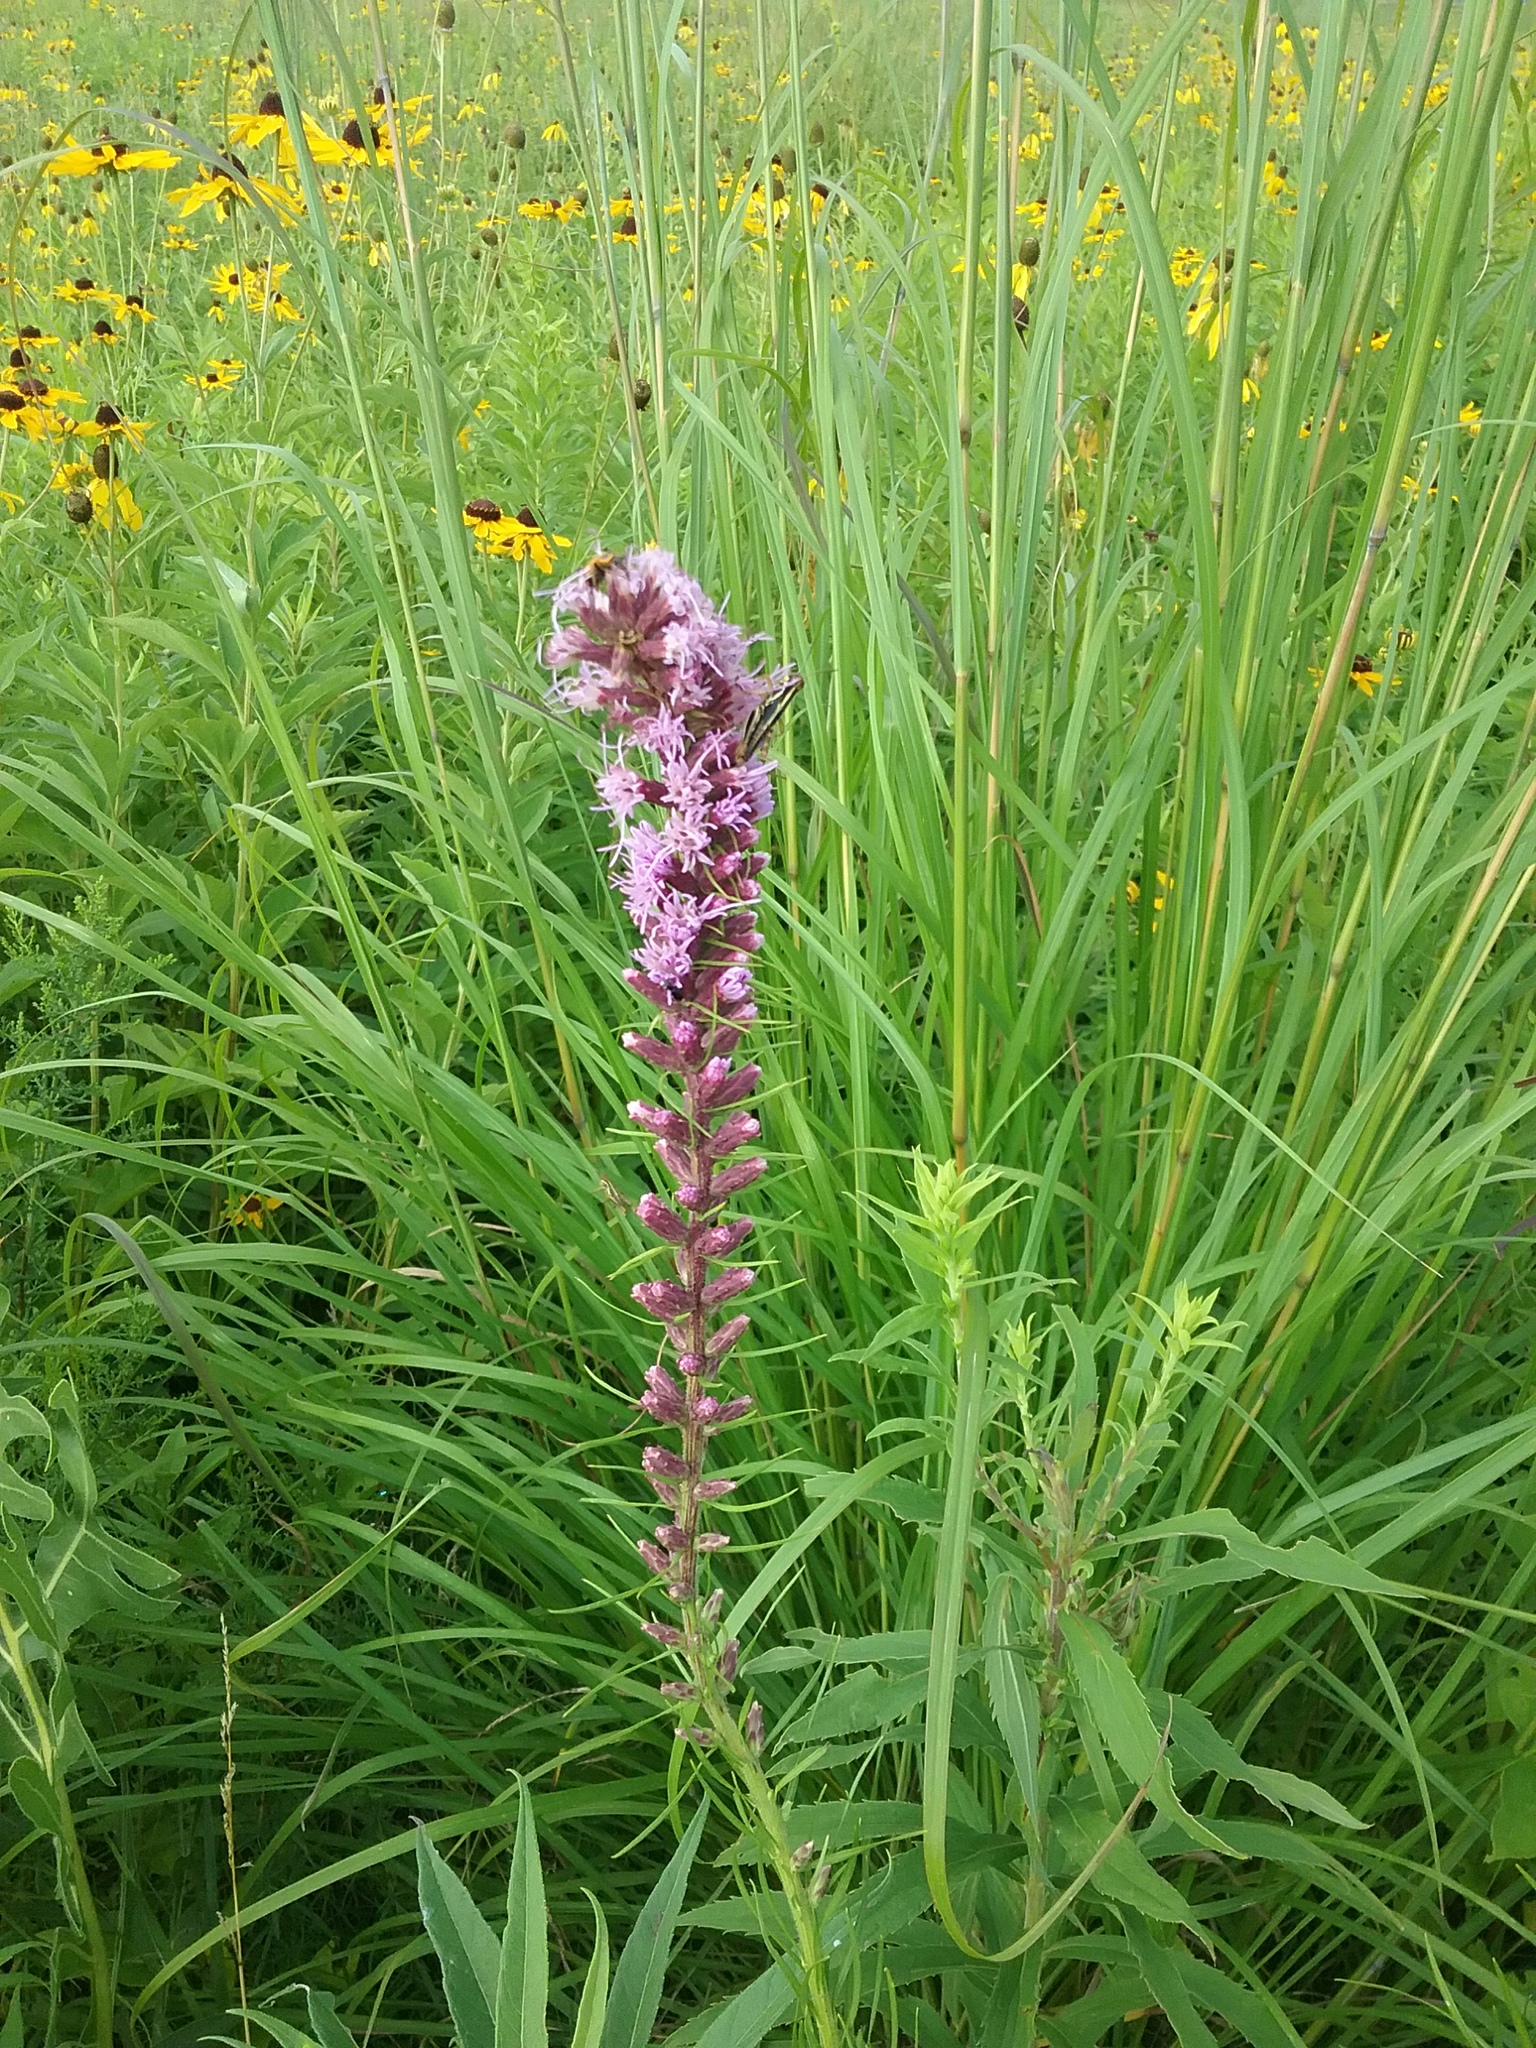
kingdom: Plantae
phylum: Tracheophyta
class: Magnoliopsida
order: Asterales
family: Asteraceae
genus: Liatris
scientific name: Liatris spicata
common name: Florist gayfeather
